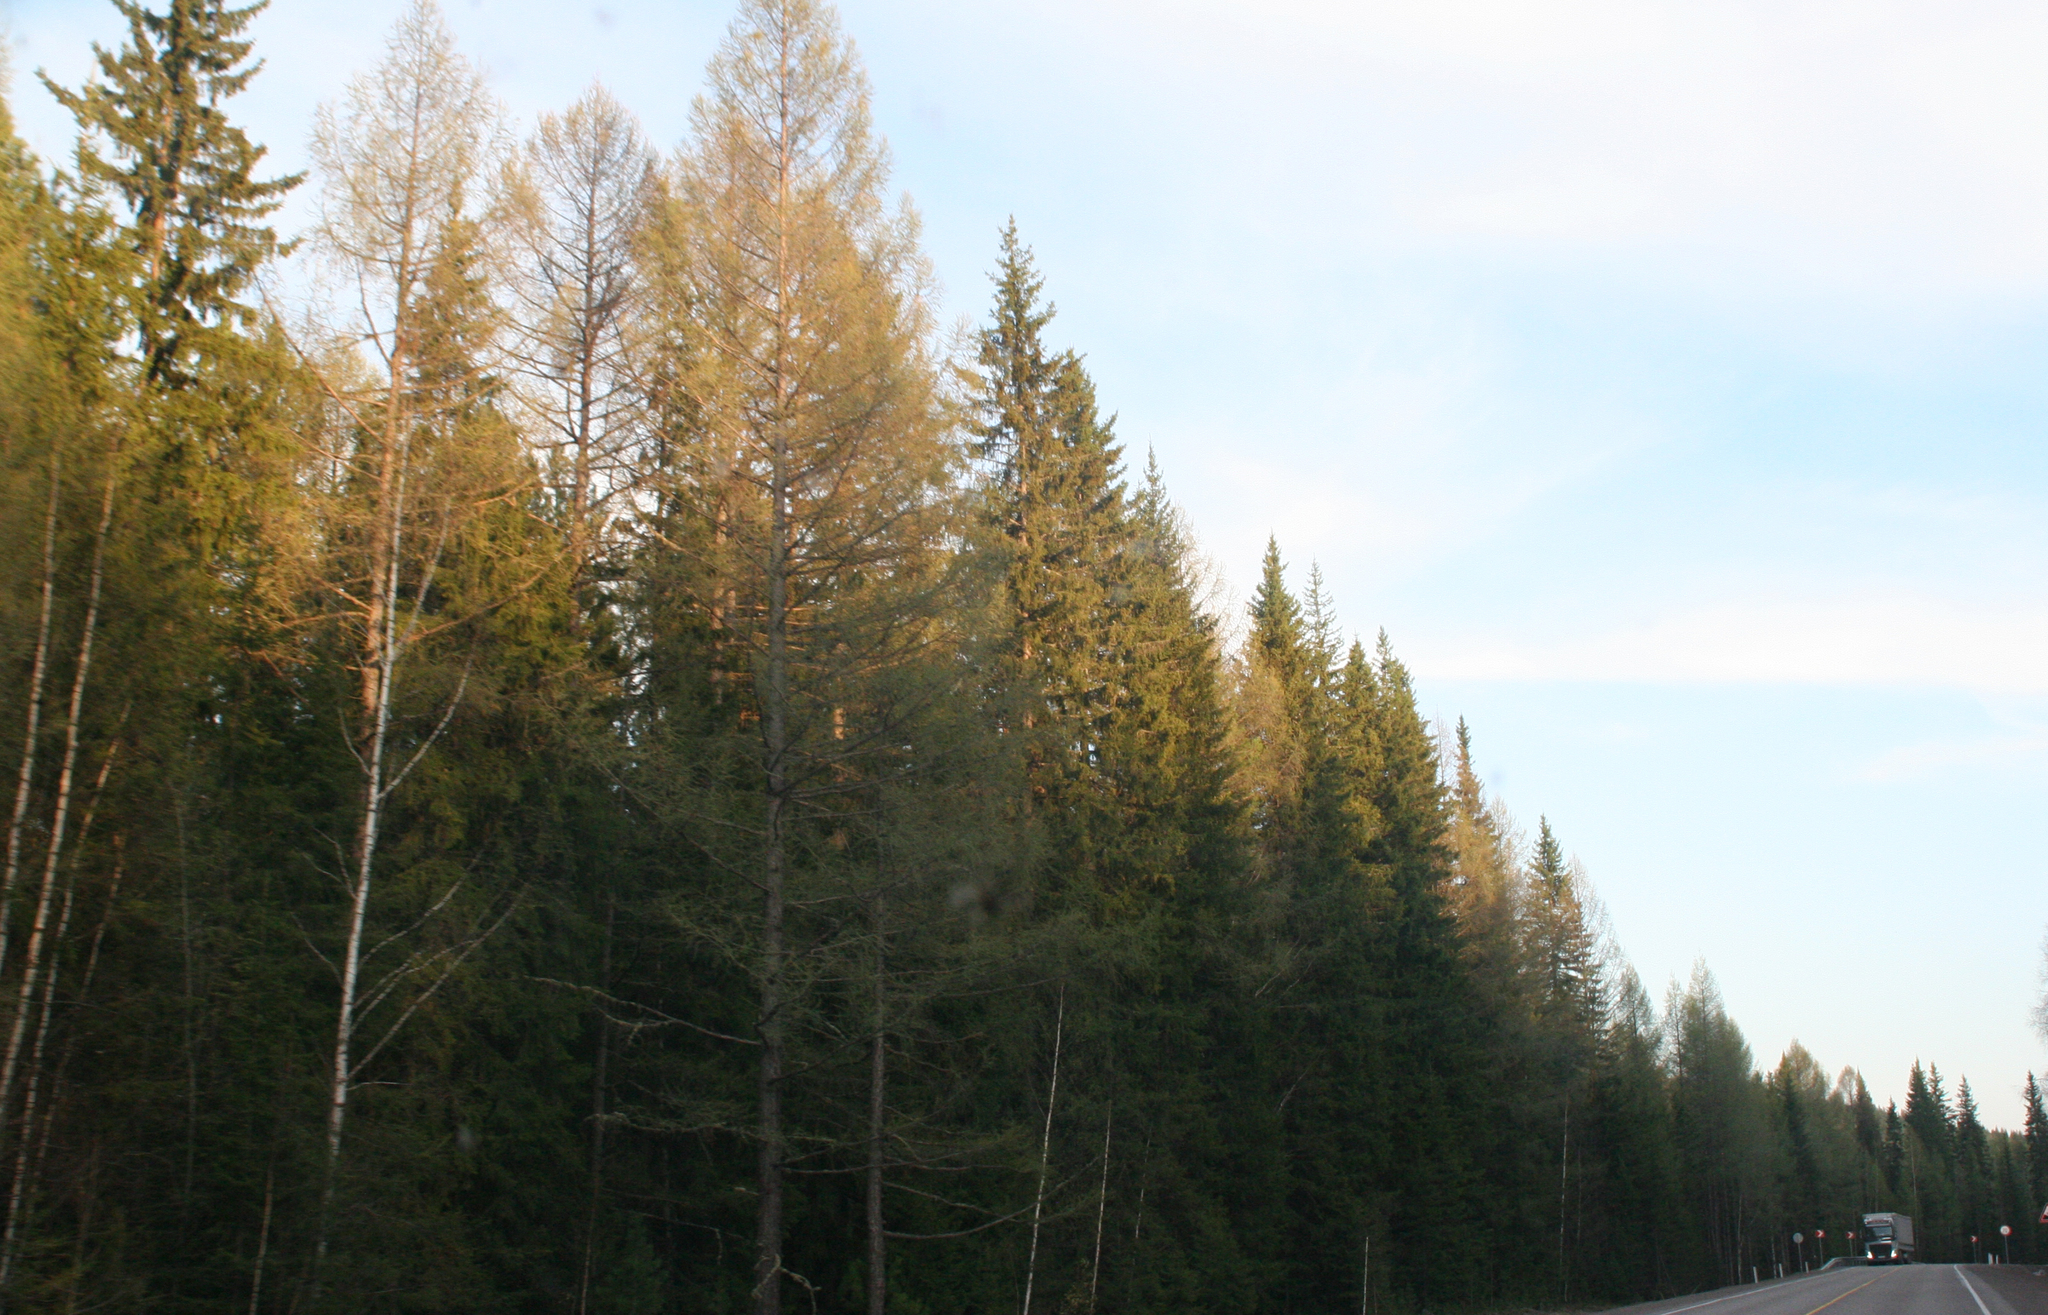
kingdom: Plantae
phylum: Tracheophyta
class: Pinopsida
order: Pinales
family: Pinaceae
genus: Picea
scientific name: Picea obovata
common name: Siberian spruce
